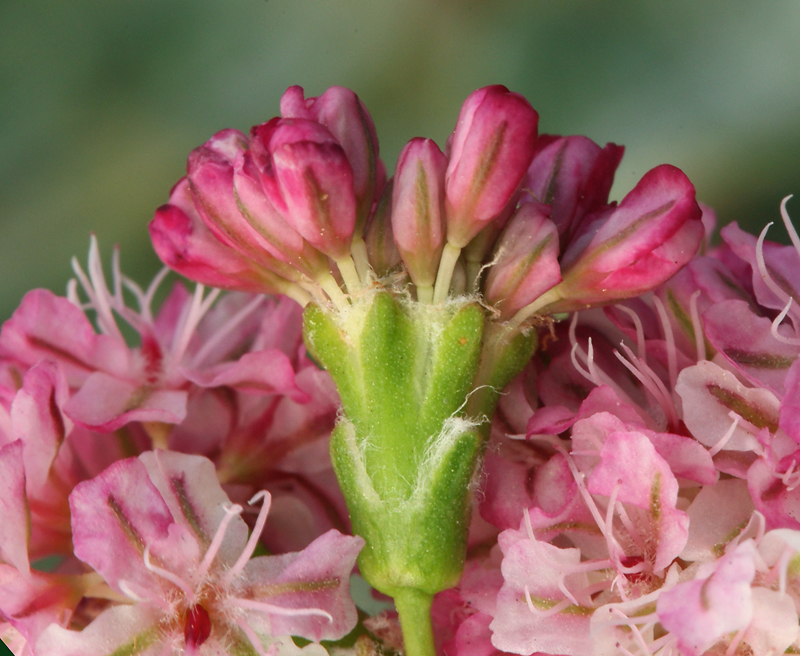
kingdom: Plantae
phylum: Tracheophyta
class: Magnoliopsida
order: Caryophyllales
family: Polygonaceae
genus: Eriogonum
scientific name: Eriogonum grande
